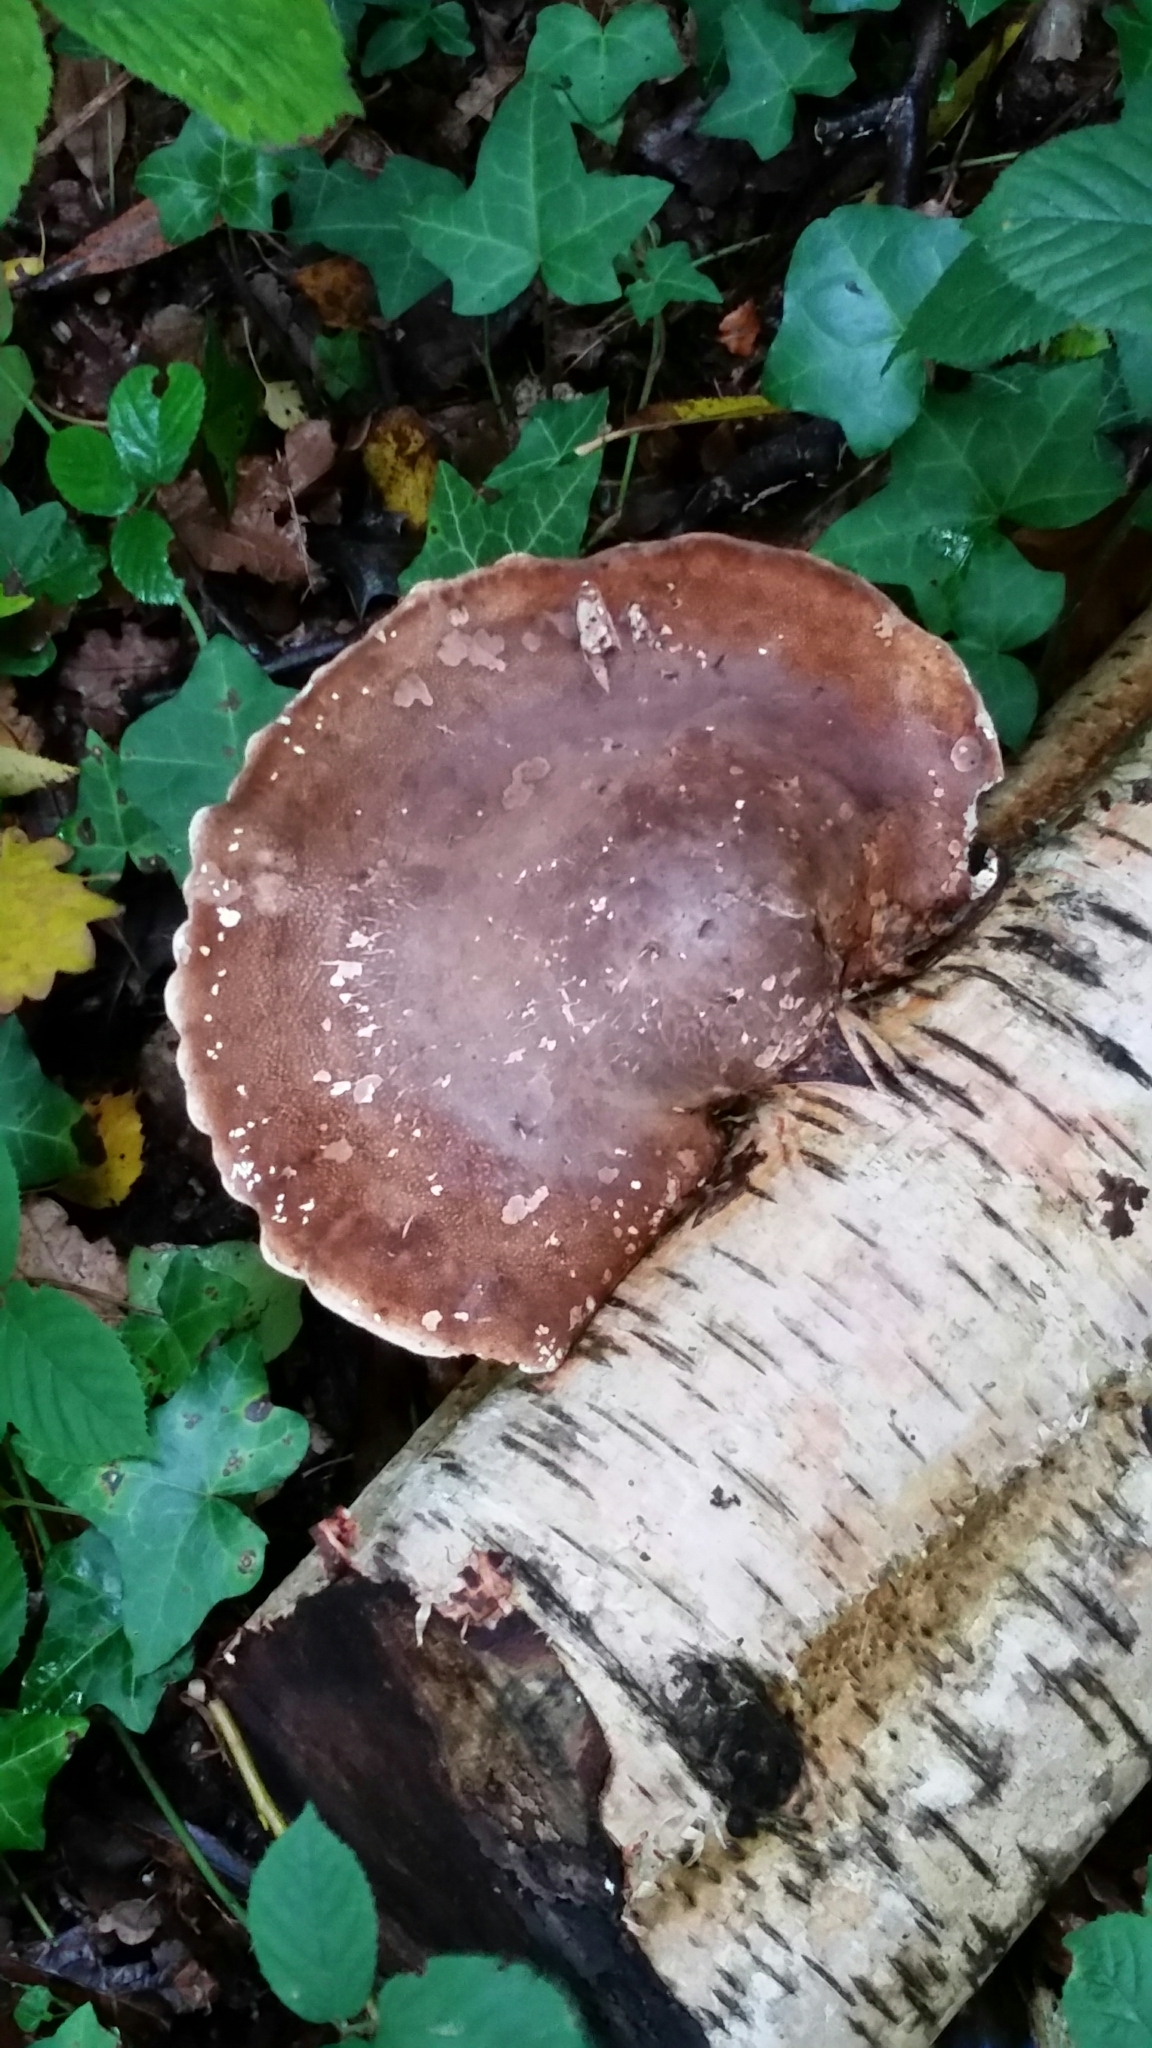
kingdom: Fungi
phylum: Basidiomycota
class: Agaricomycetes
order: Polyporales
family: Fomitopsidaceae
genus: Fomitopsis
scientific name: Fomitopsis betulina
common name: Birch polypore
